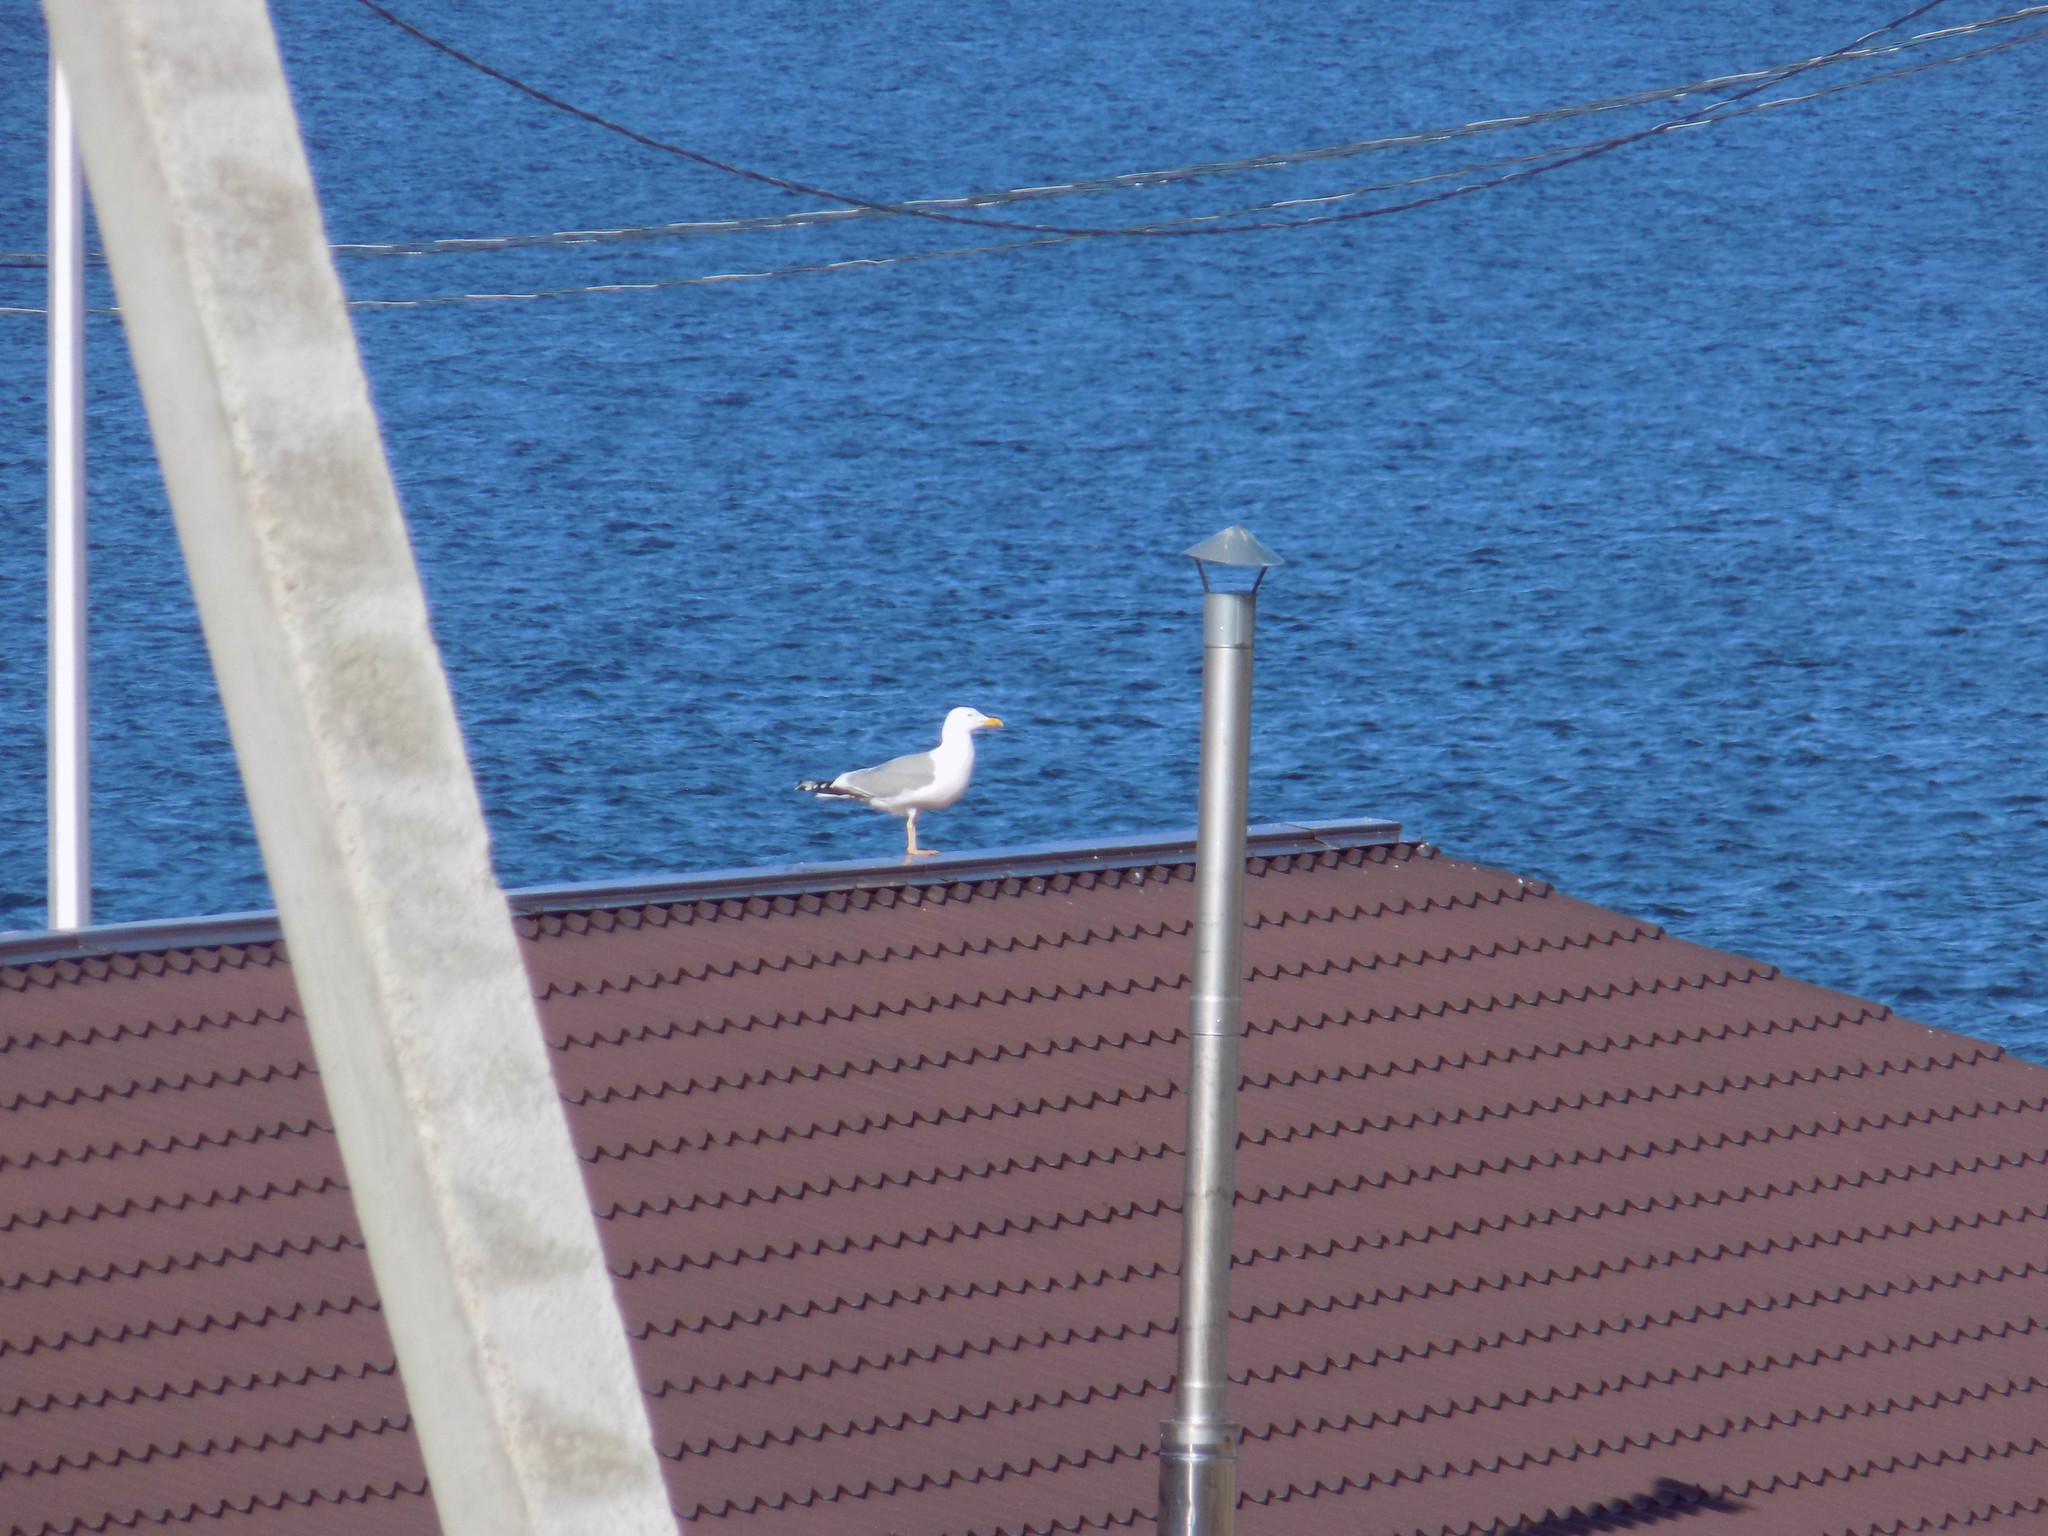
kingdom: Animalia
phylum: Chordata
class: Aves
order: Charadriiformes
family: Laridae
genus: Larus
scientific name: Larus vegae
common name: Vega gull
